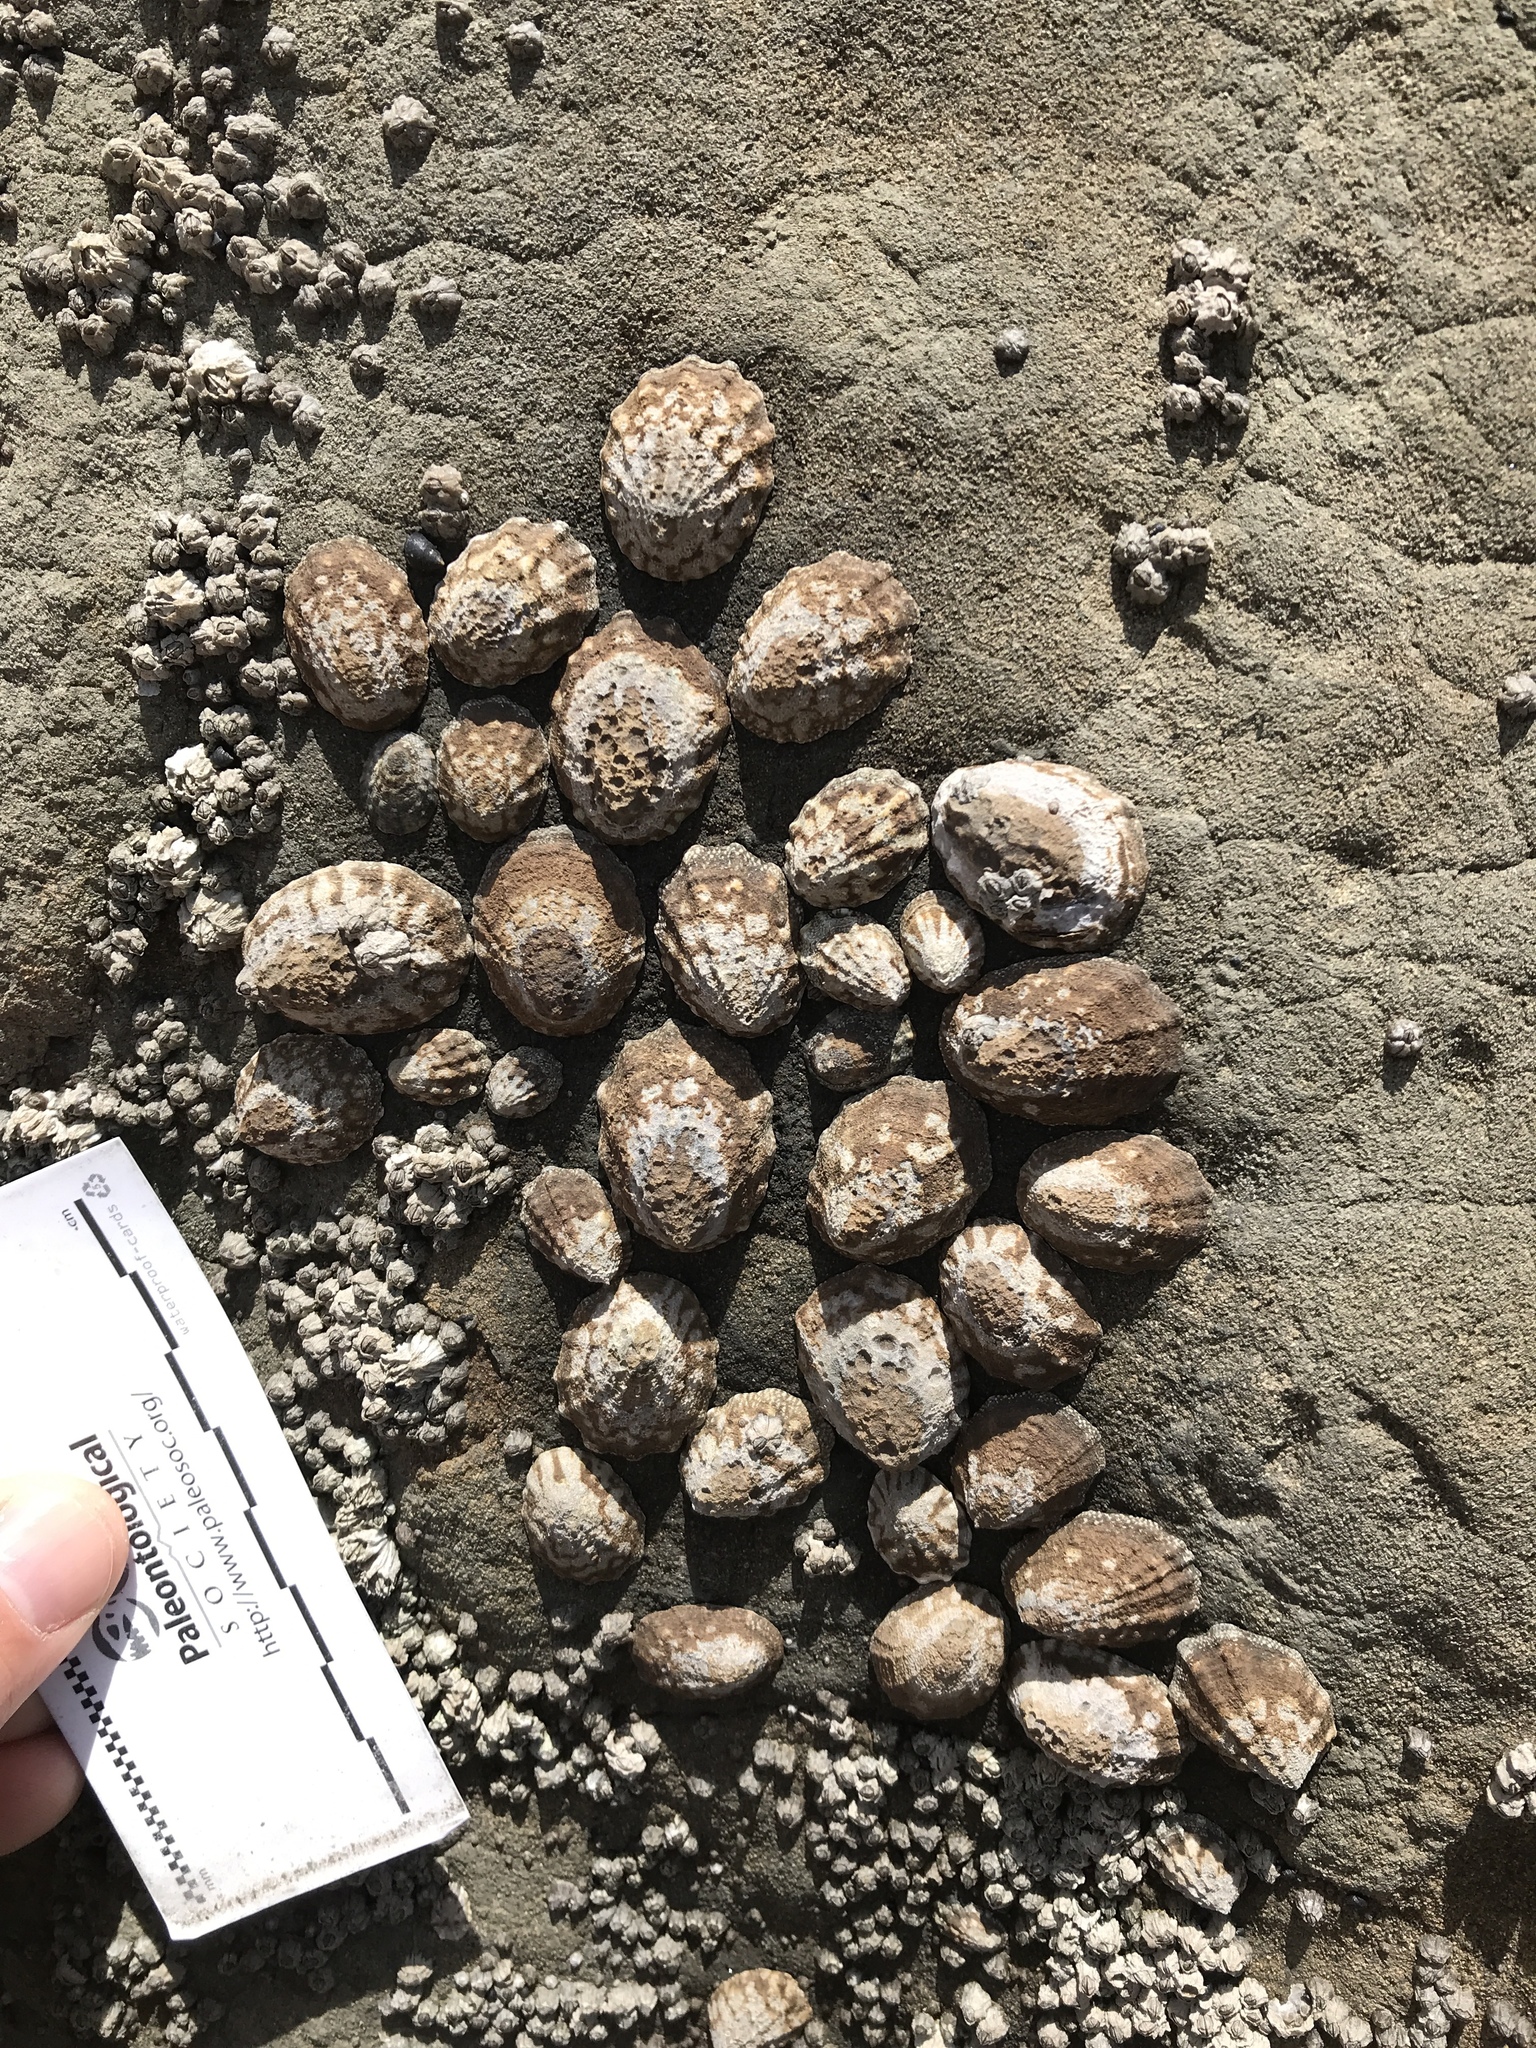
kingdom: Animalia
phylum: Mollusca
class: Gastropoda
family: Lottiidae
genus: Lottia
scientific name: Lottia digitalis
